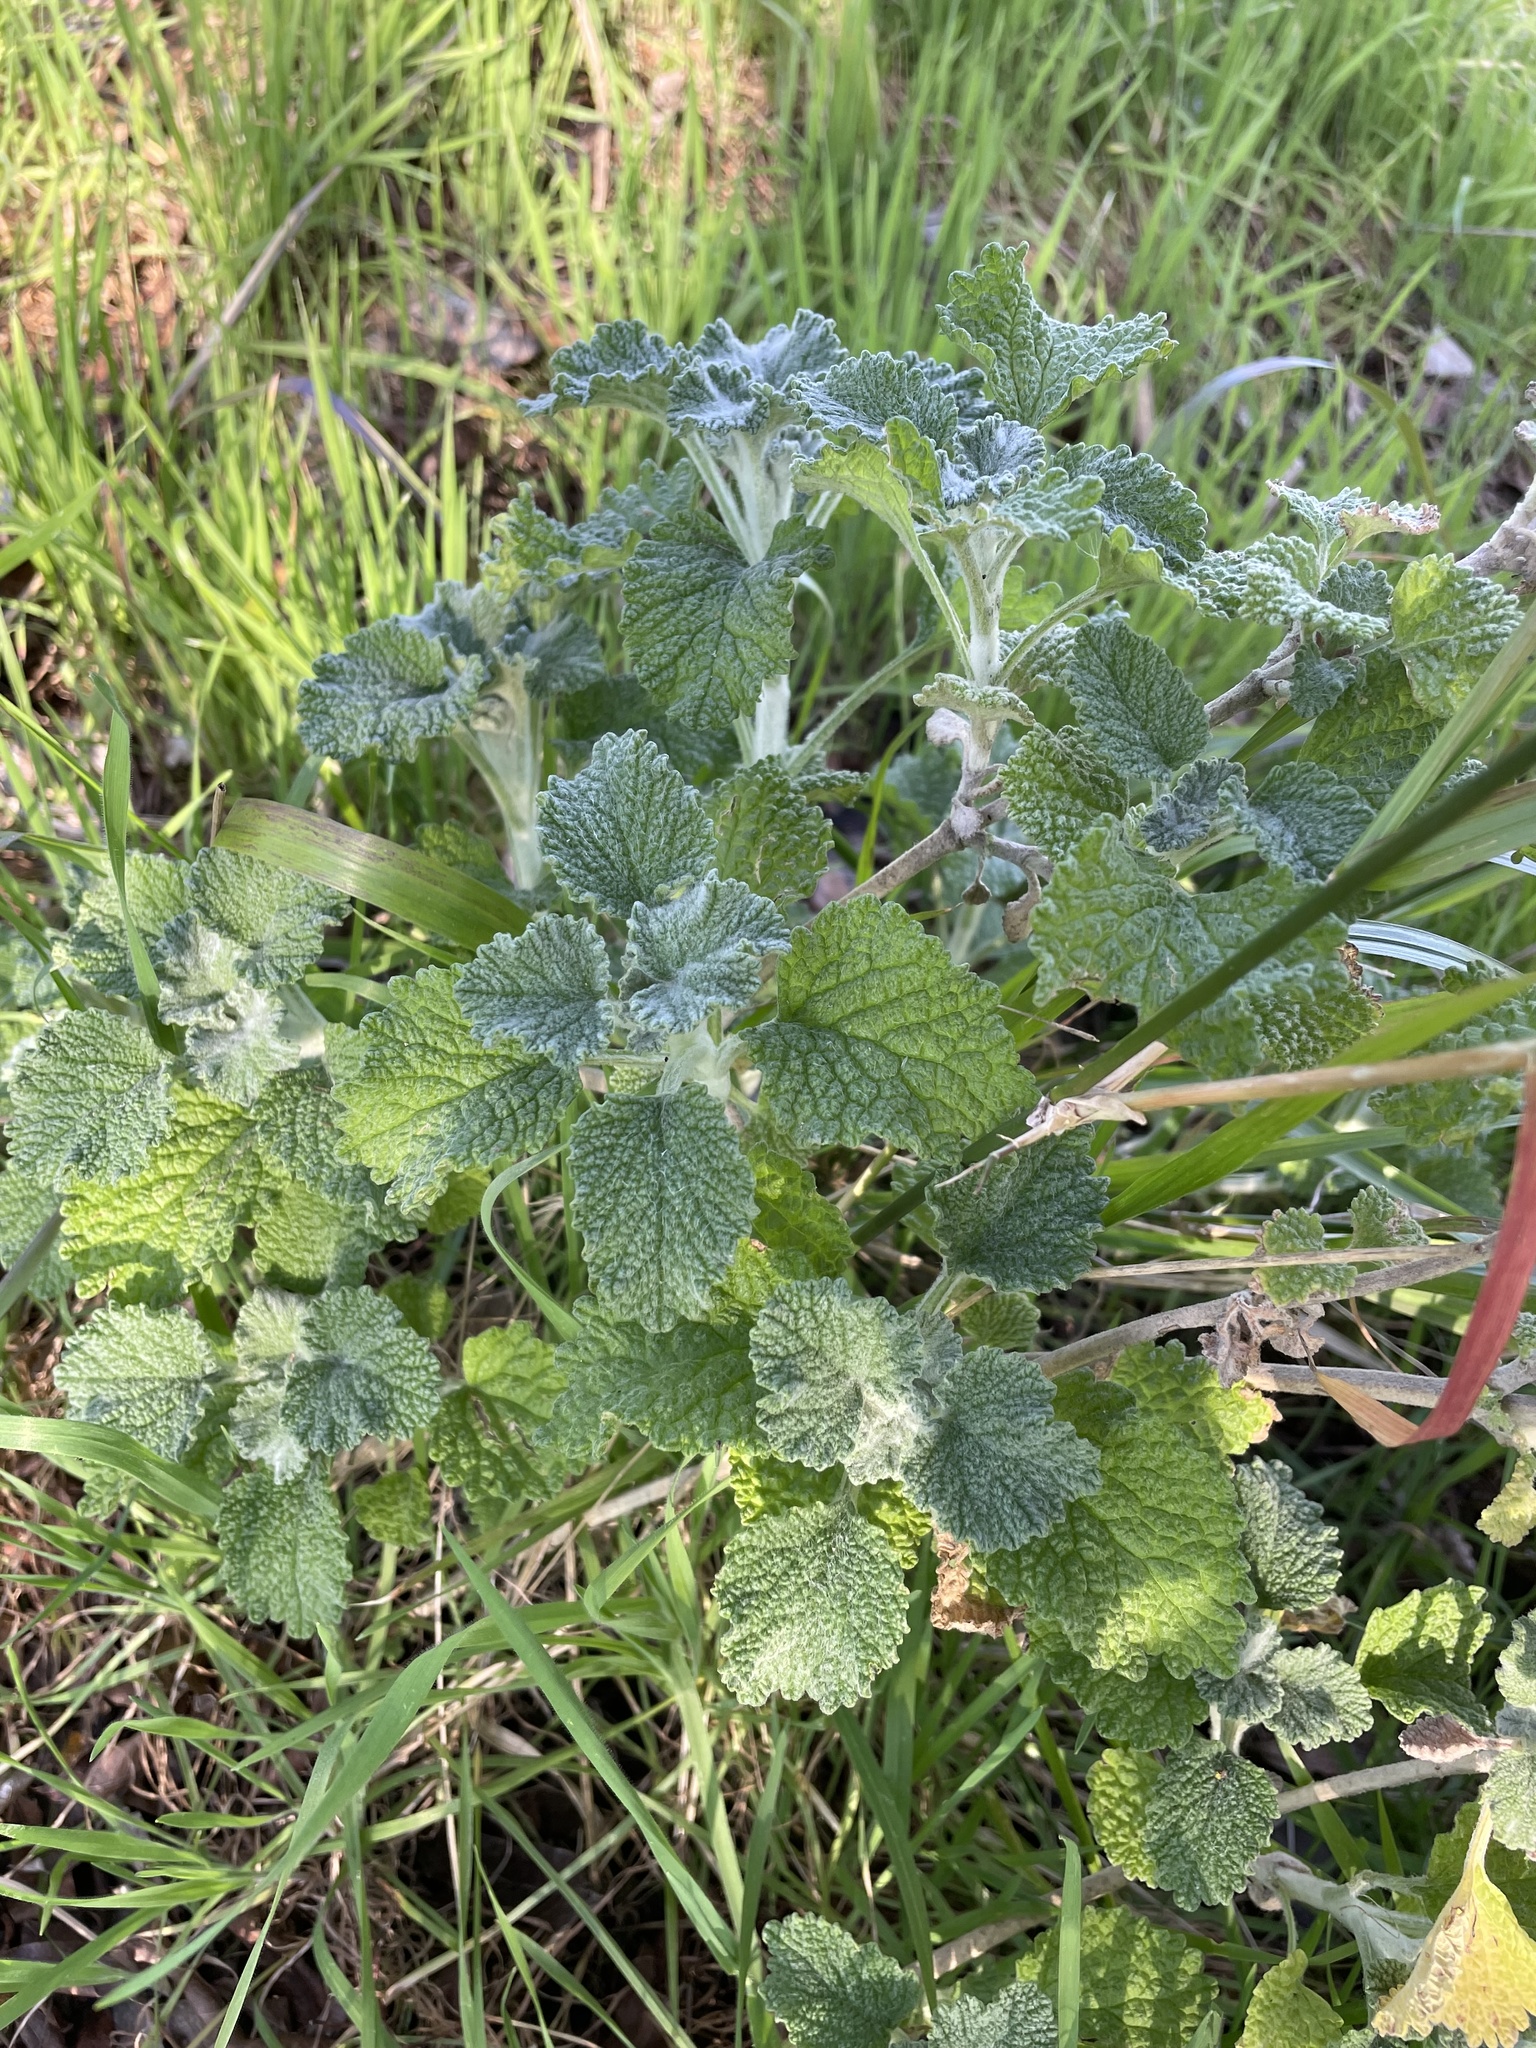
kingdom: Plantae
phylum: Tracheophyta
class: Magnoliopsida
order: Lamiales
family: Lamiaceae
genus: Marrubium
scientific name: Marrubium vulgare
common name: Horehound
